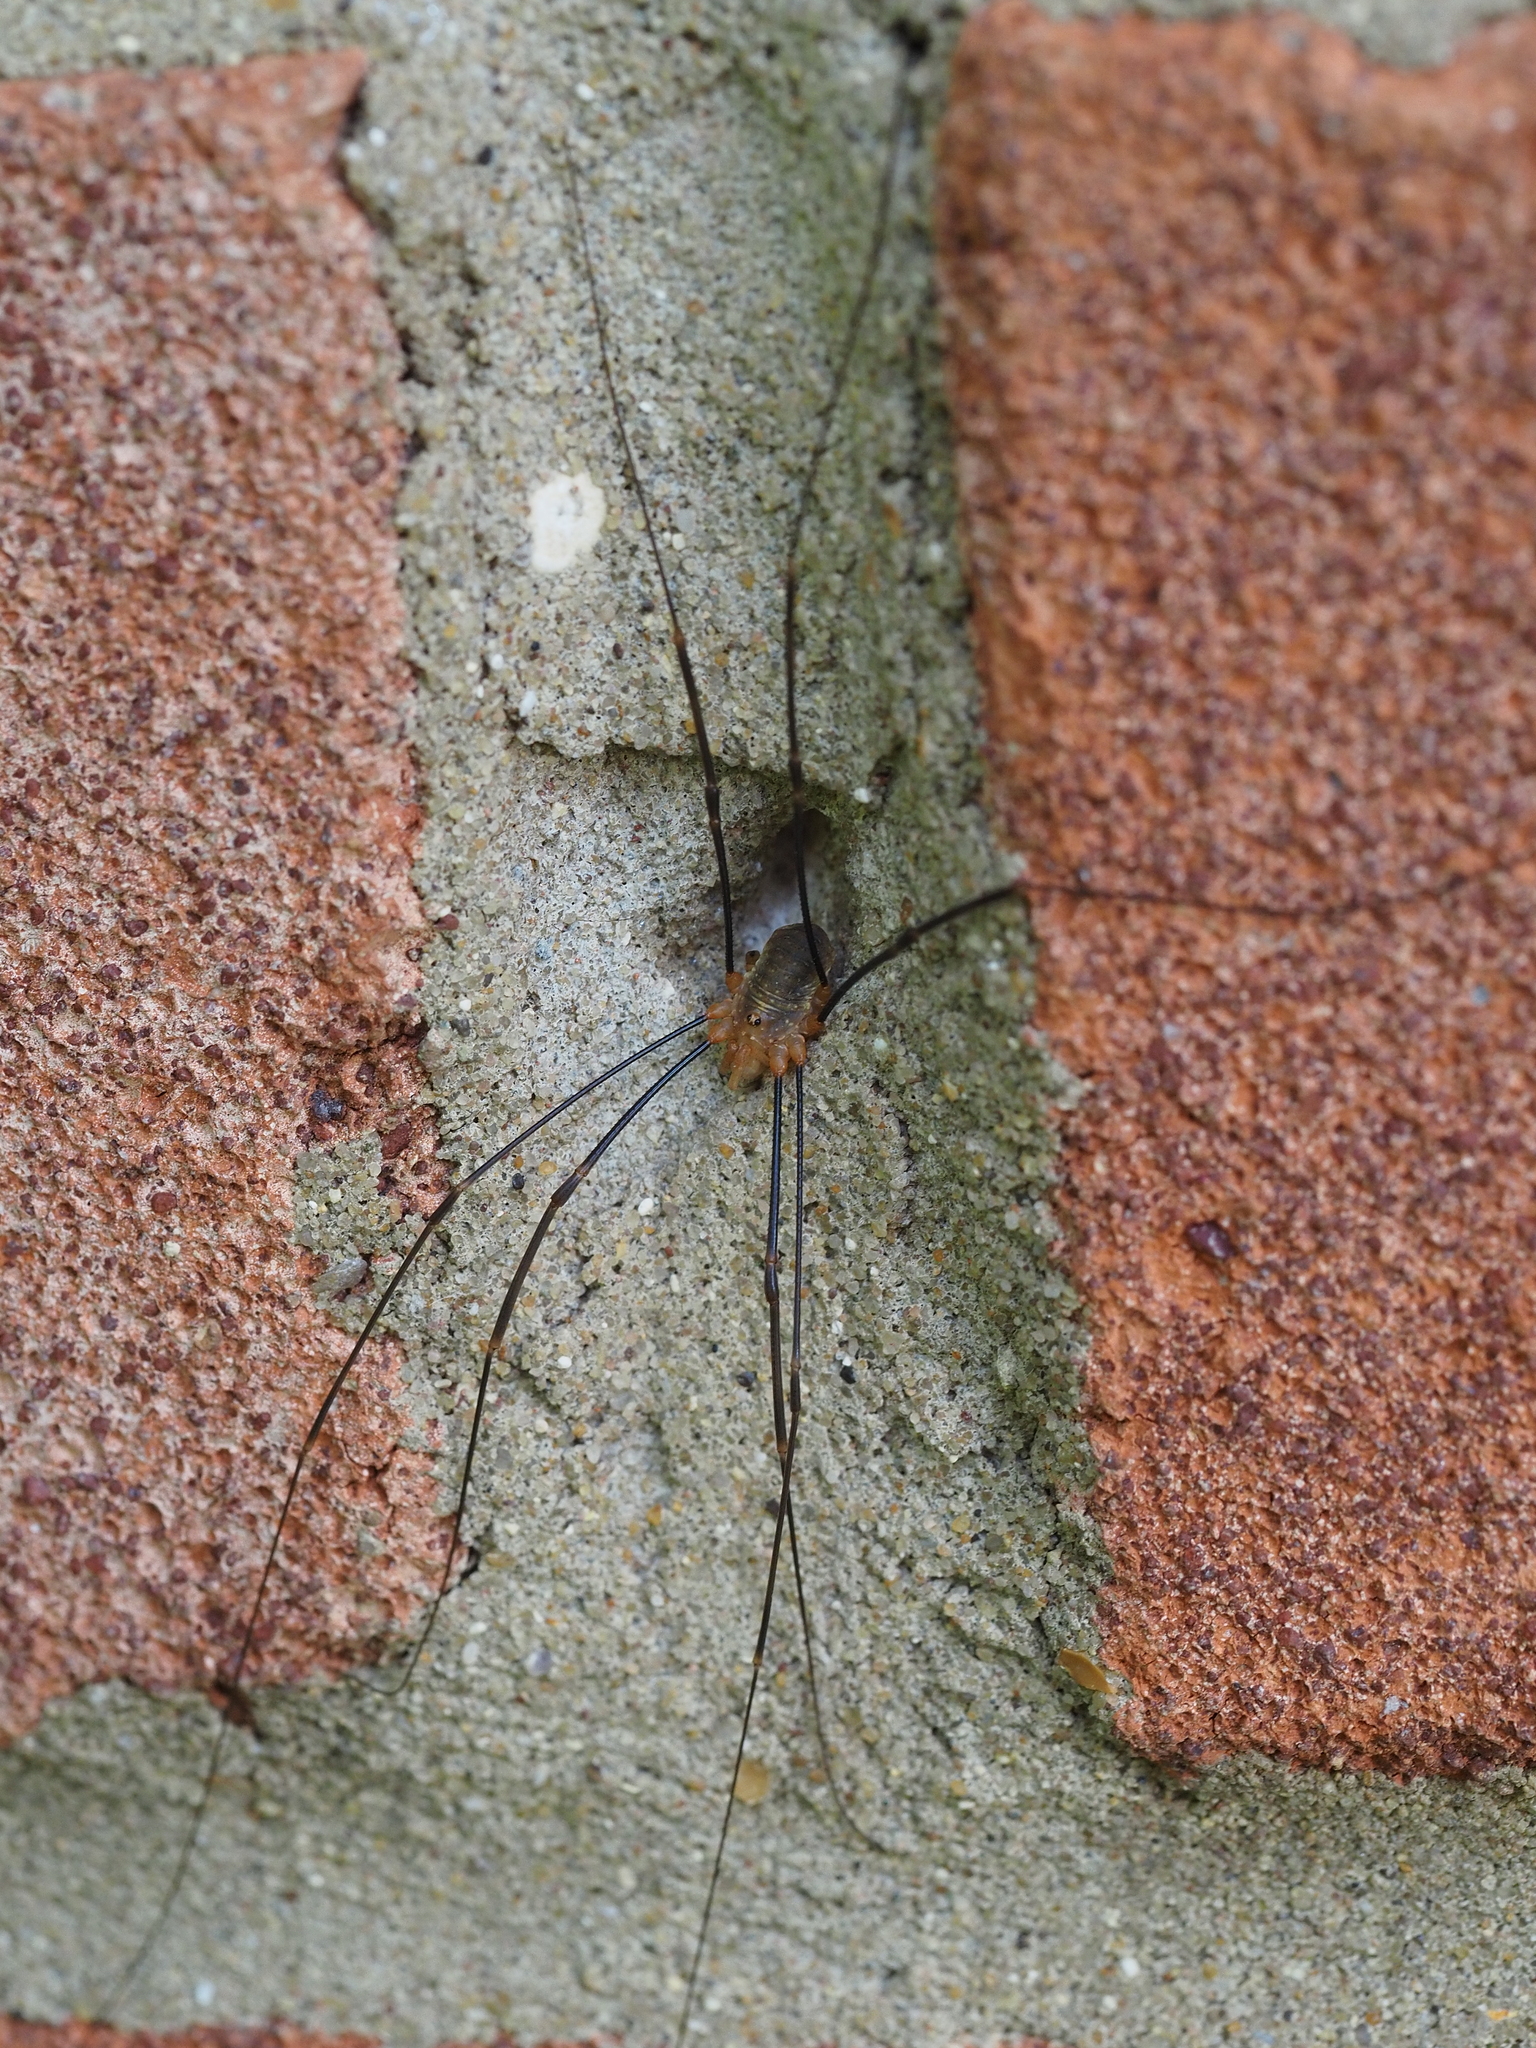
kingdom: Animalia
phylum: Arthropoda
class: Arachnida
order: Opiliones
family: Phalangiidae
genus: Opilio
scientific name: Opilio canestrinii
